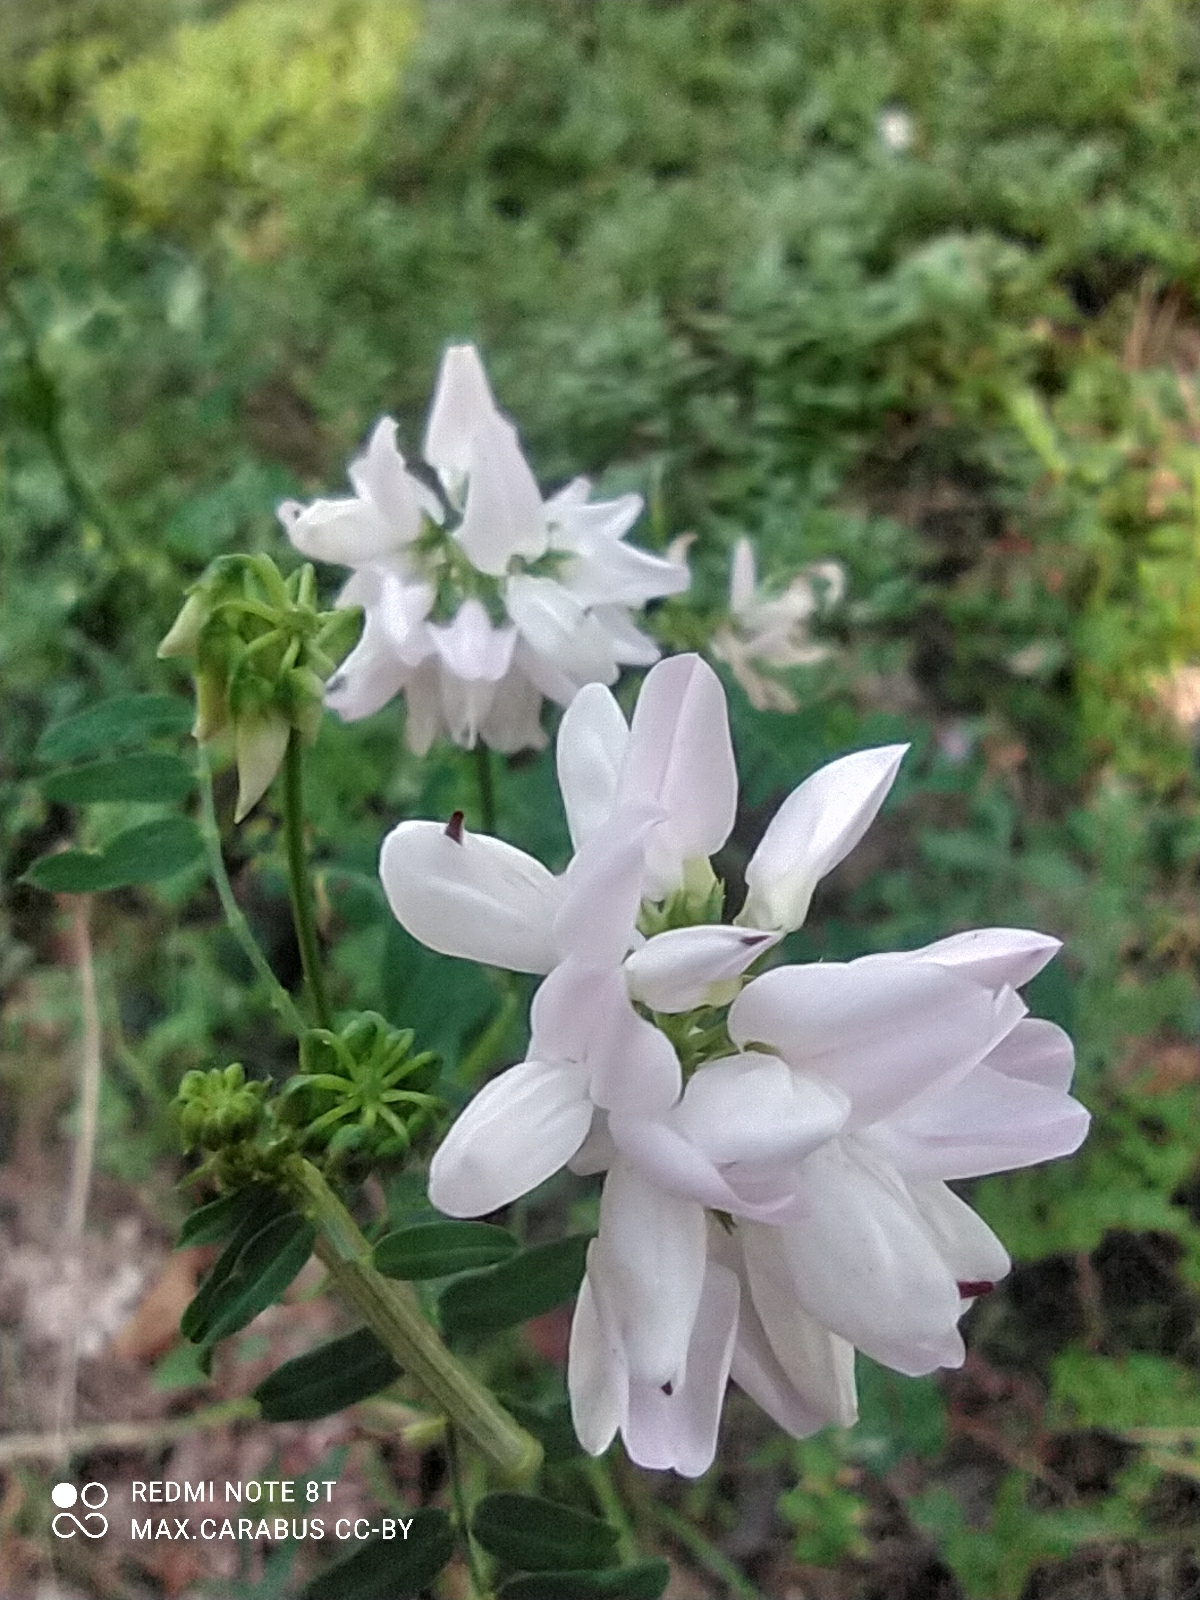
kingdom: Plantae
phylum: Tracheophyta
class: Magnoliopsida
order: Fabales
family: Fabaceae
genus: Coronilla
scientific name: Coronilla varia
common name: Crownvetch
